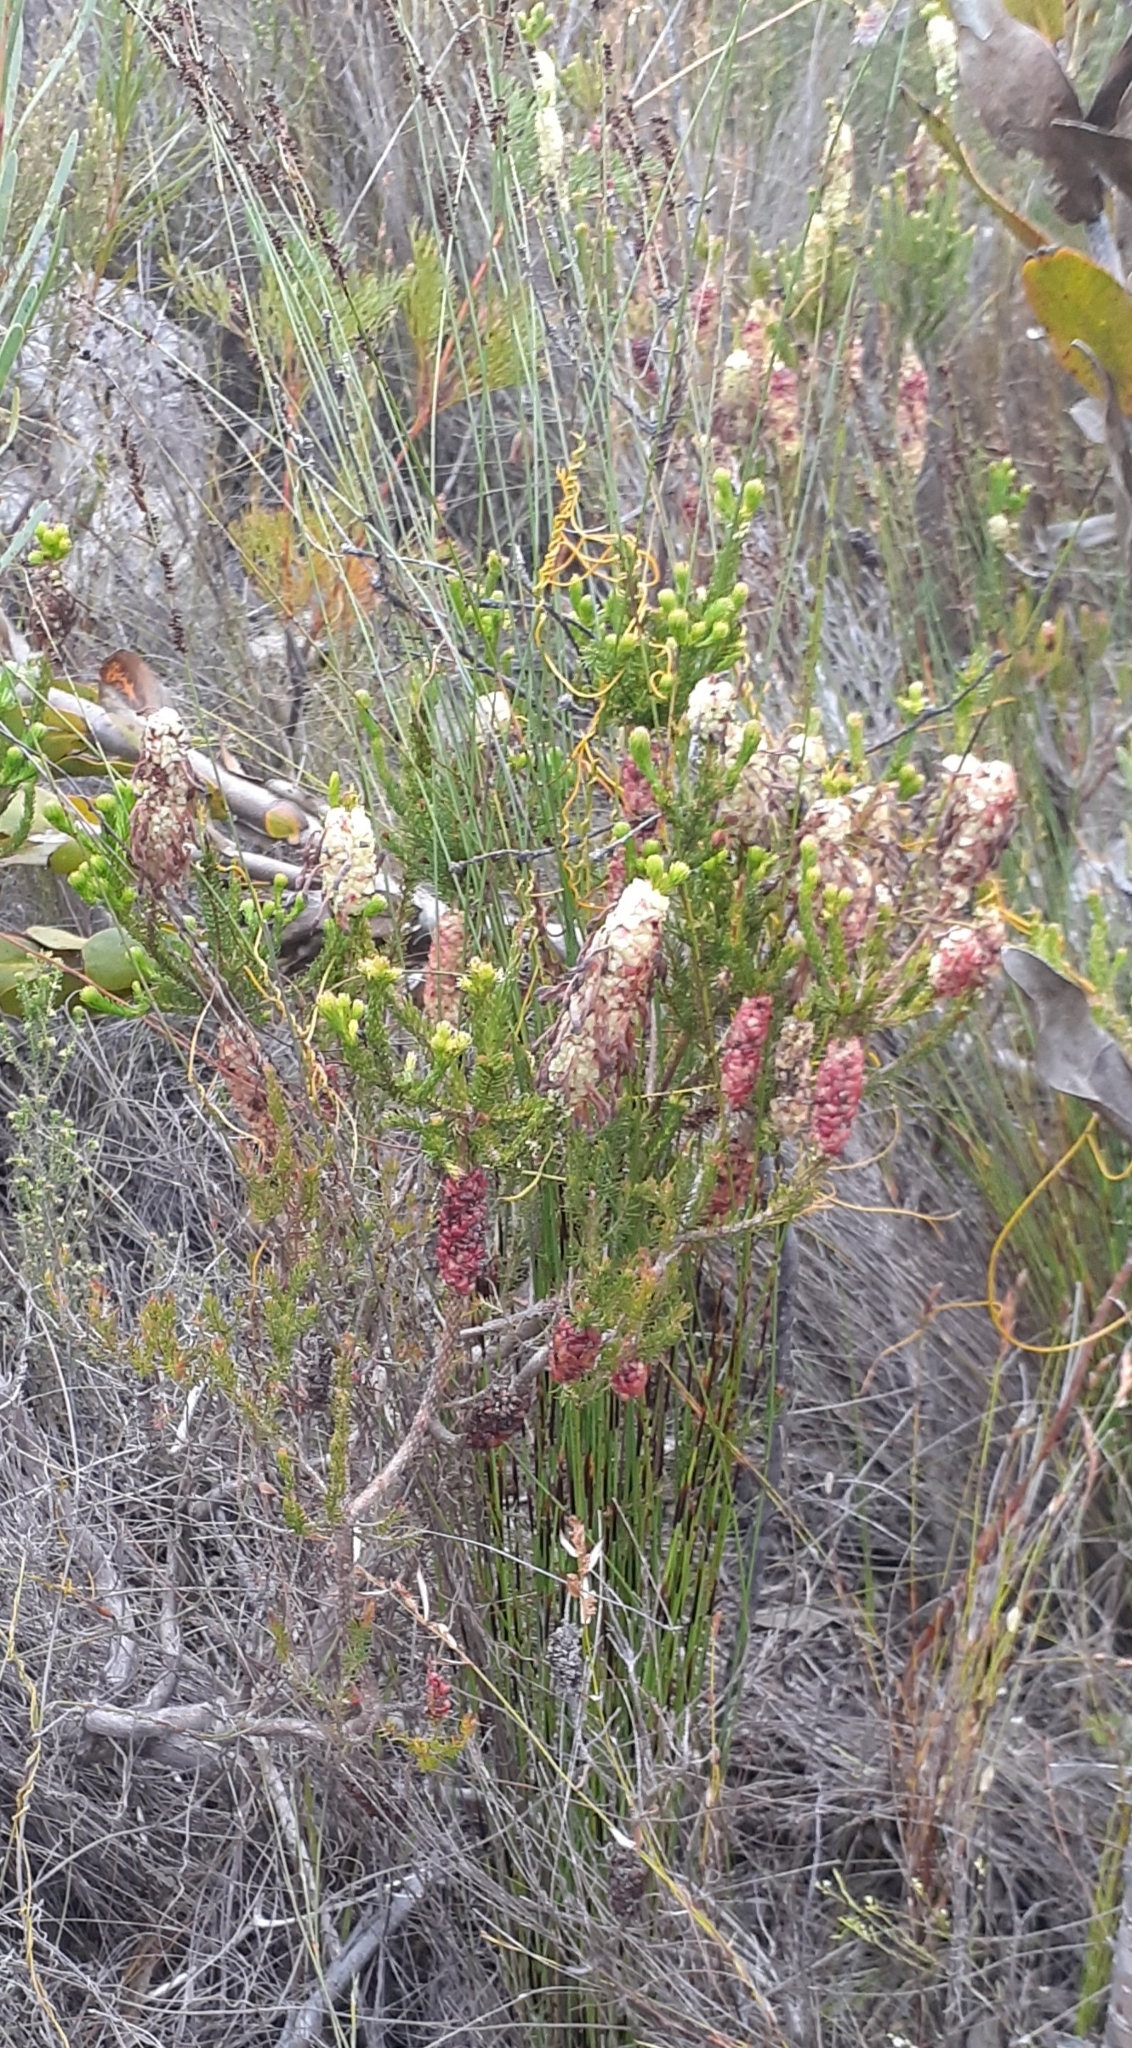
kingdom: Plantae
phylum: Tracheophyta
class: Magnoliopsida
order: Ericales
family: Ericaceae
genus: Erica
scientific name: Erica sessiliflora
